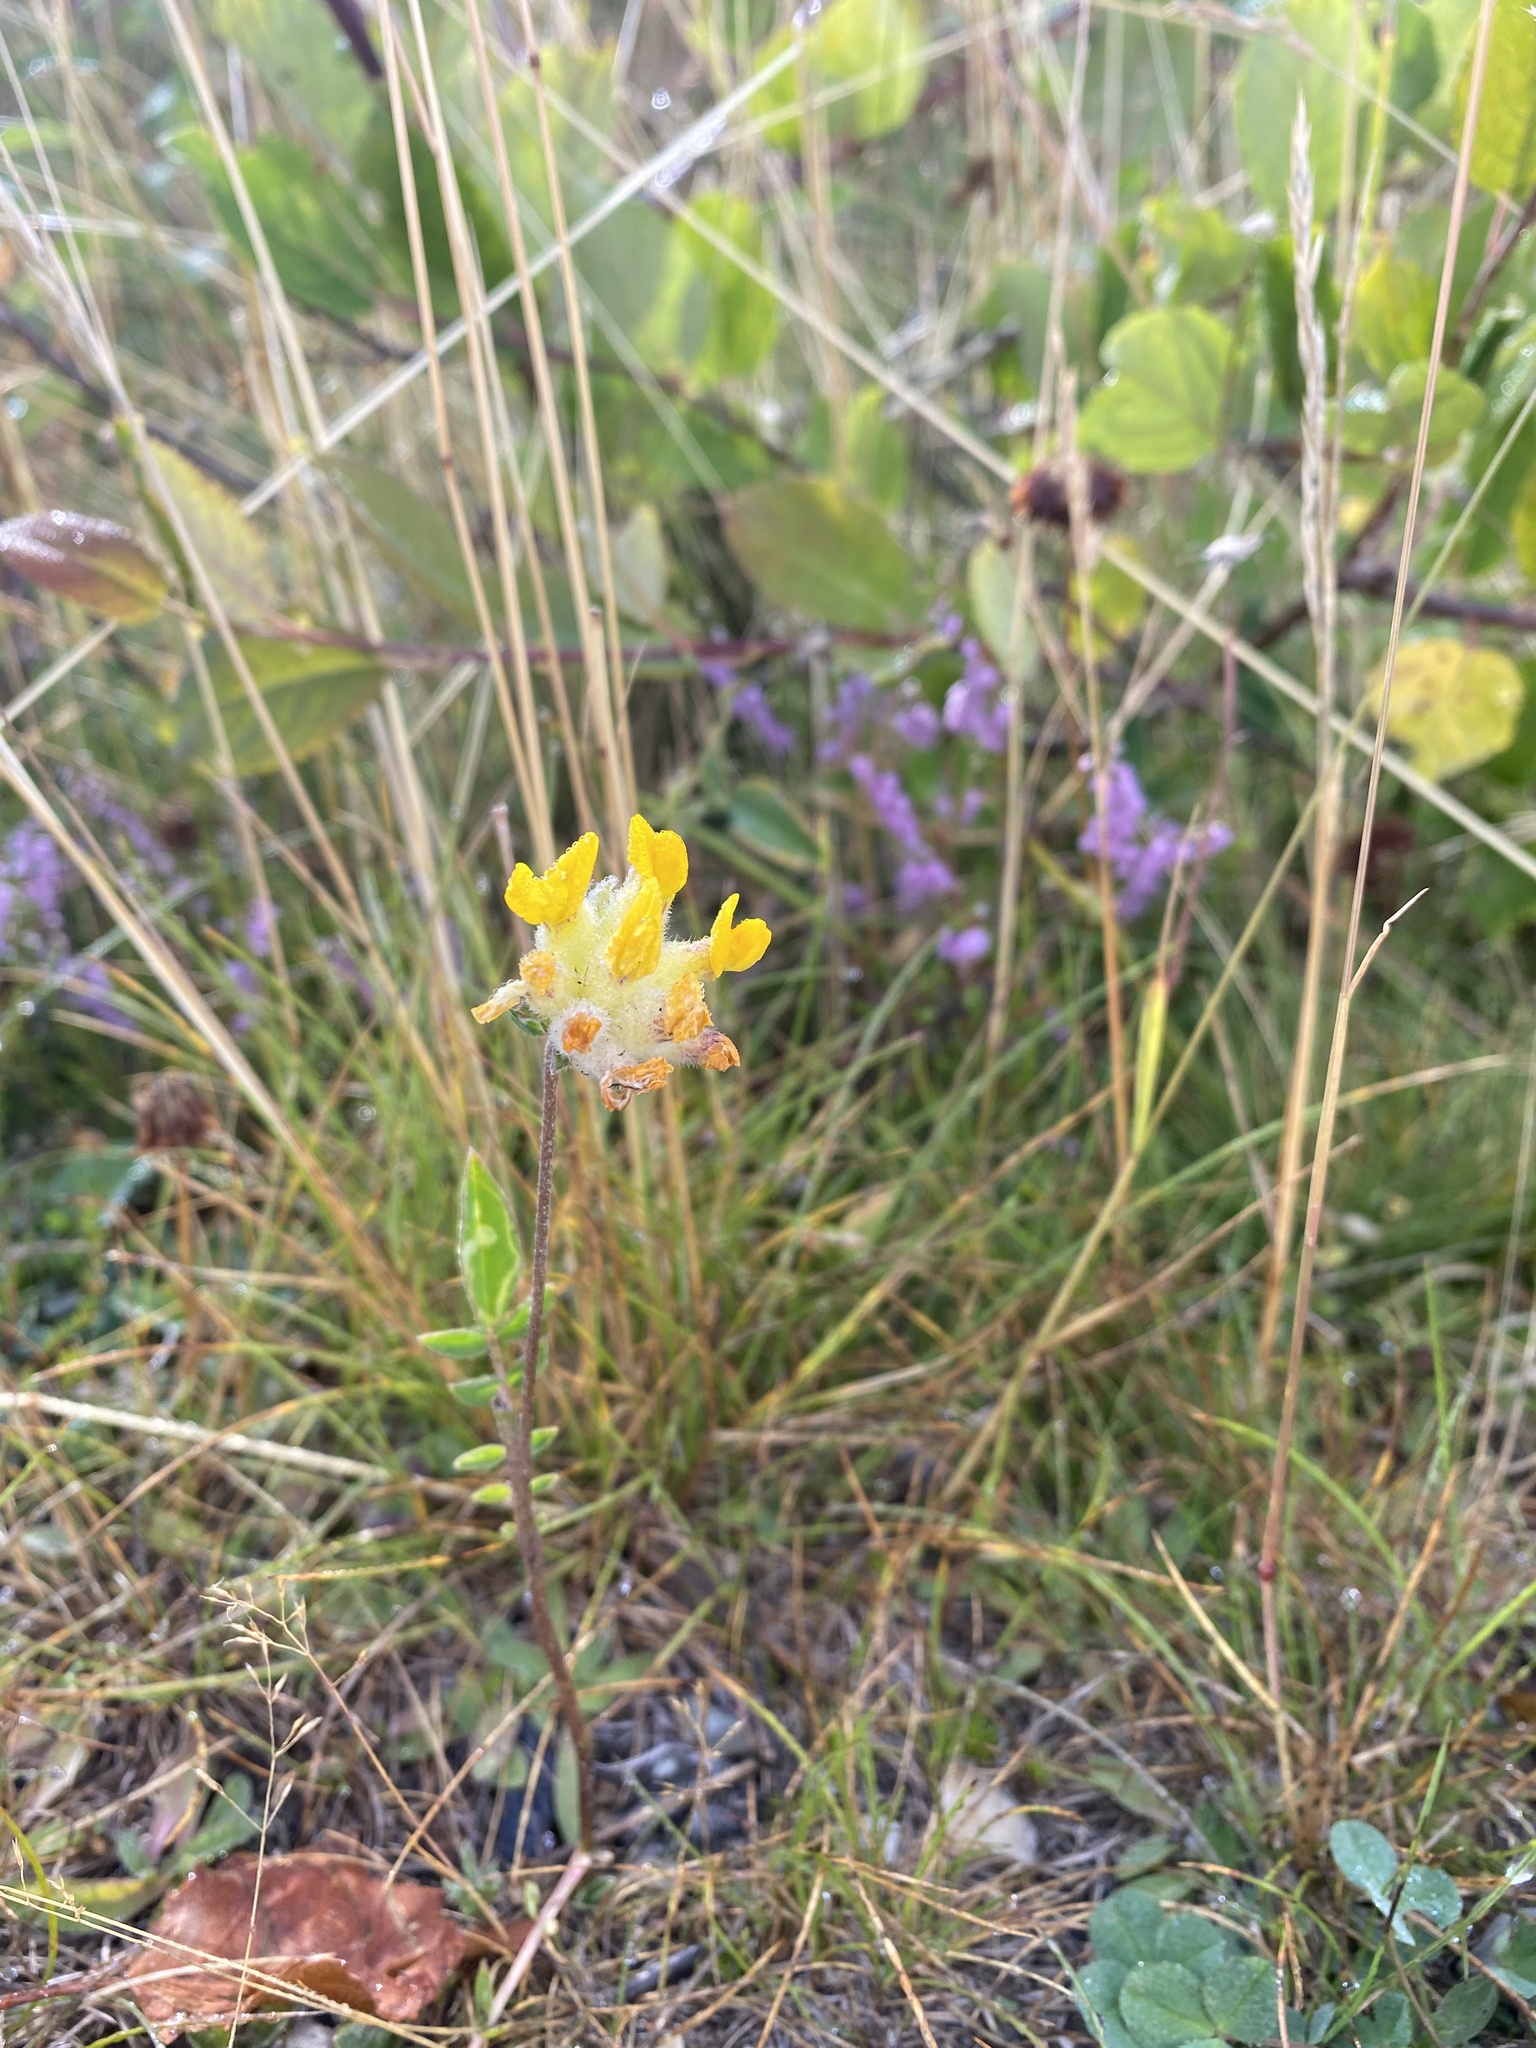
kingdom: Plantae
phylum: Tracheophyta
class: Magnoliopsida
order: Fabales
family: Fabaceae
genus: Anthyllis
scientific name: Anthyllis vulneraria
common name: Kidney vetch
